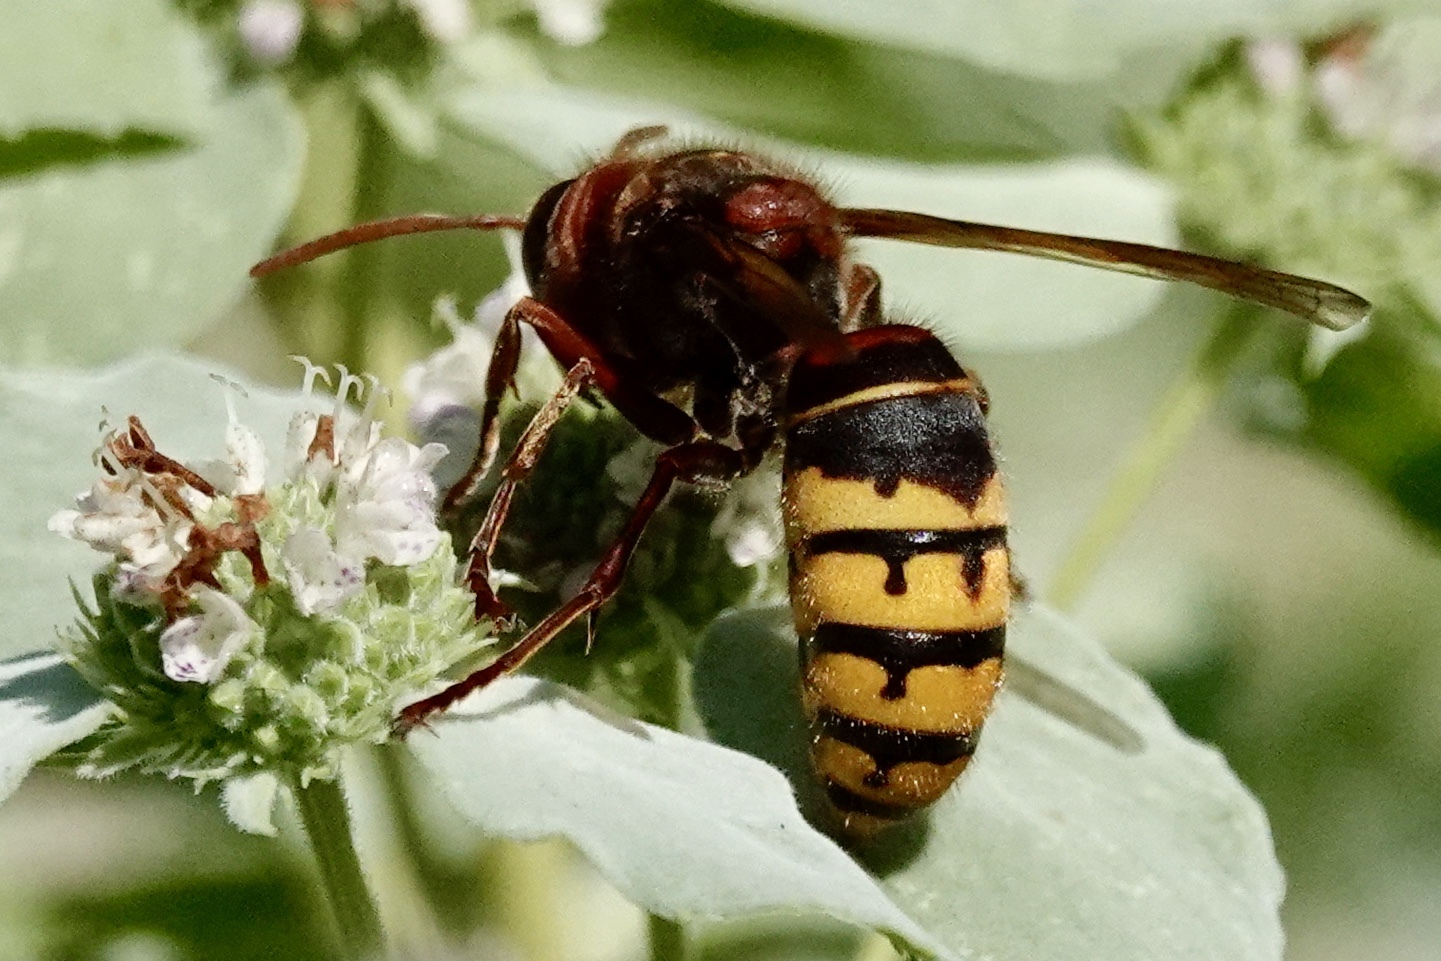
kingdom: Animalia
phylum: Arthropoda
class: Insecta
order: Hymenoptera
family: Vespidae
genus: Vespa
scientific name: Vespa crabro
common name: Hornet
